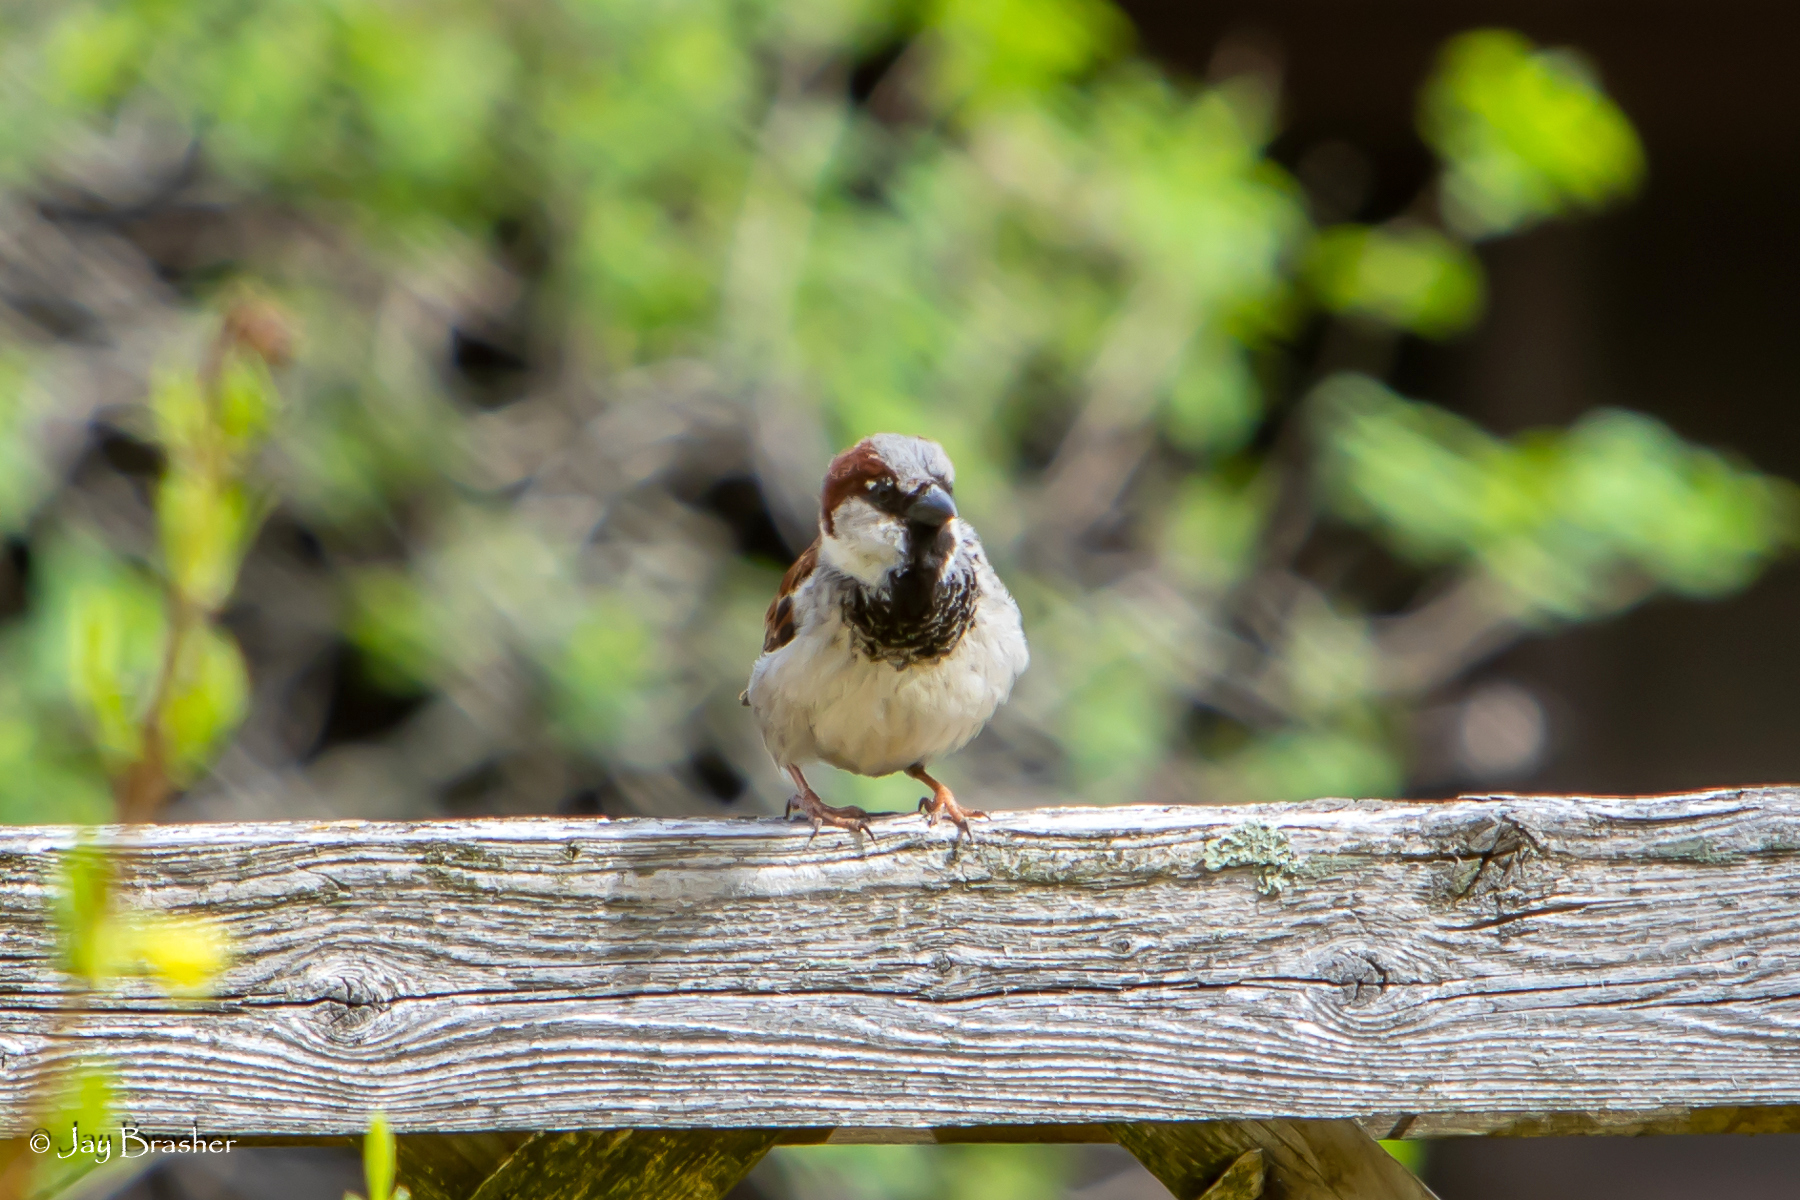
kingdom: Animalia
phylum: Chordata
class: Aves
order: Passeriformes
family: Passeridae
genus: Passer
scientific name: Passer domesticus
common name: House sparrow
